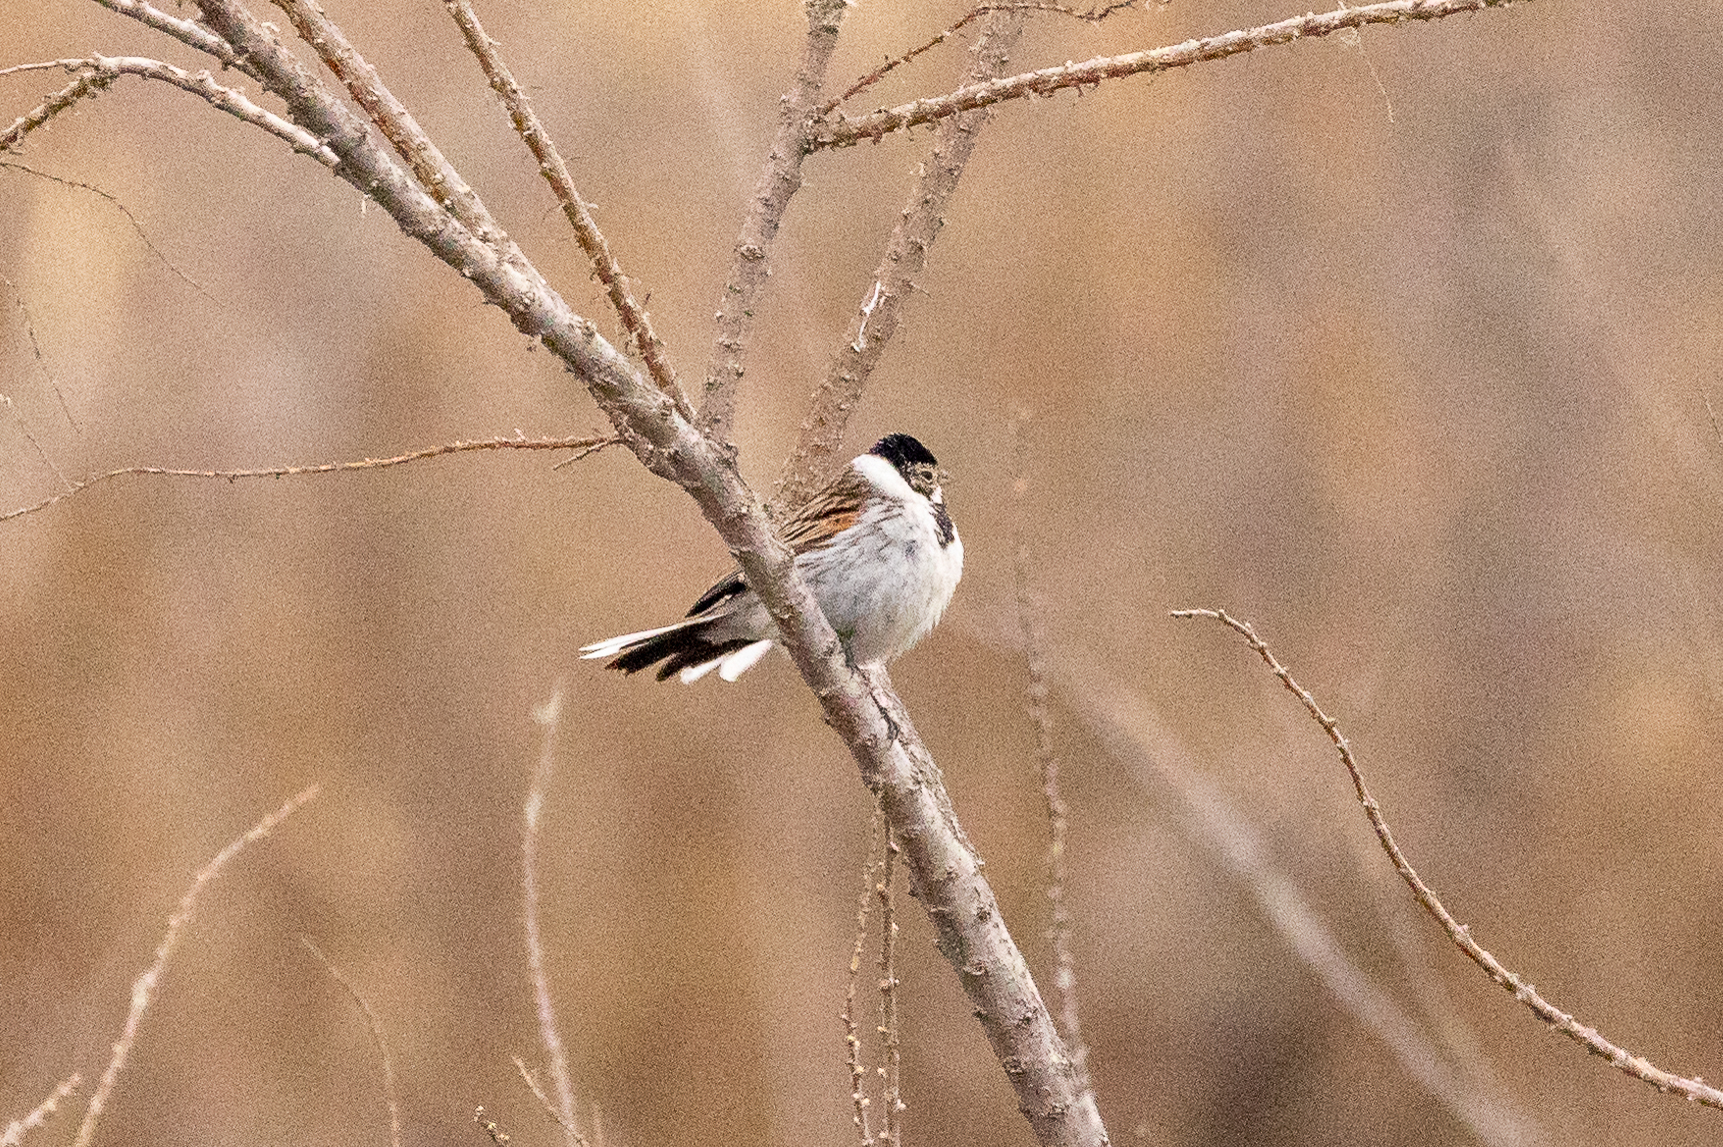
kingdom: Animalia
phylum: Chordata
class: Aves
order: Passeriformes
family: Emberizidae
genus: Emberiza
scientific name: Emberiza schoeniclus
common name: Reed bunting
